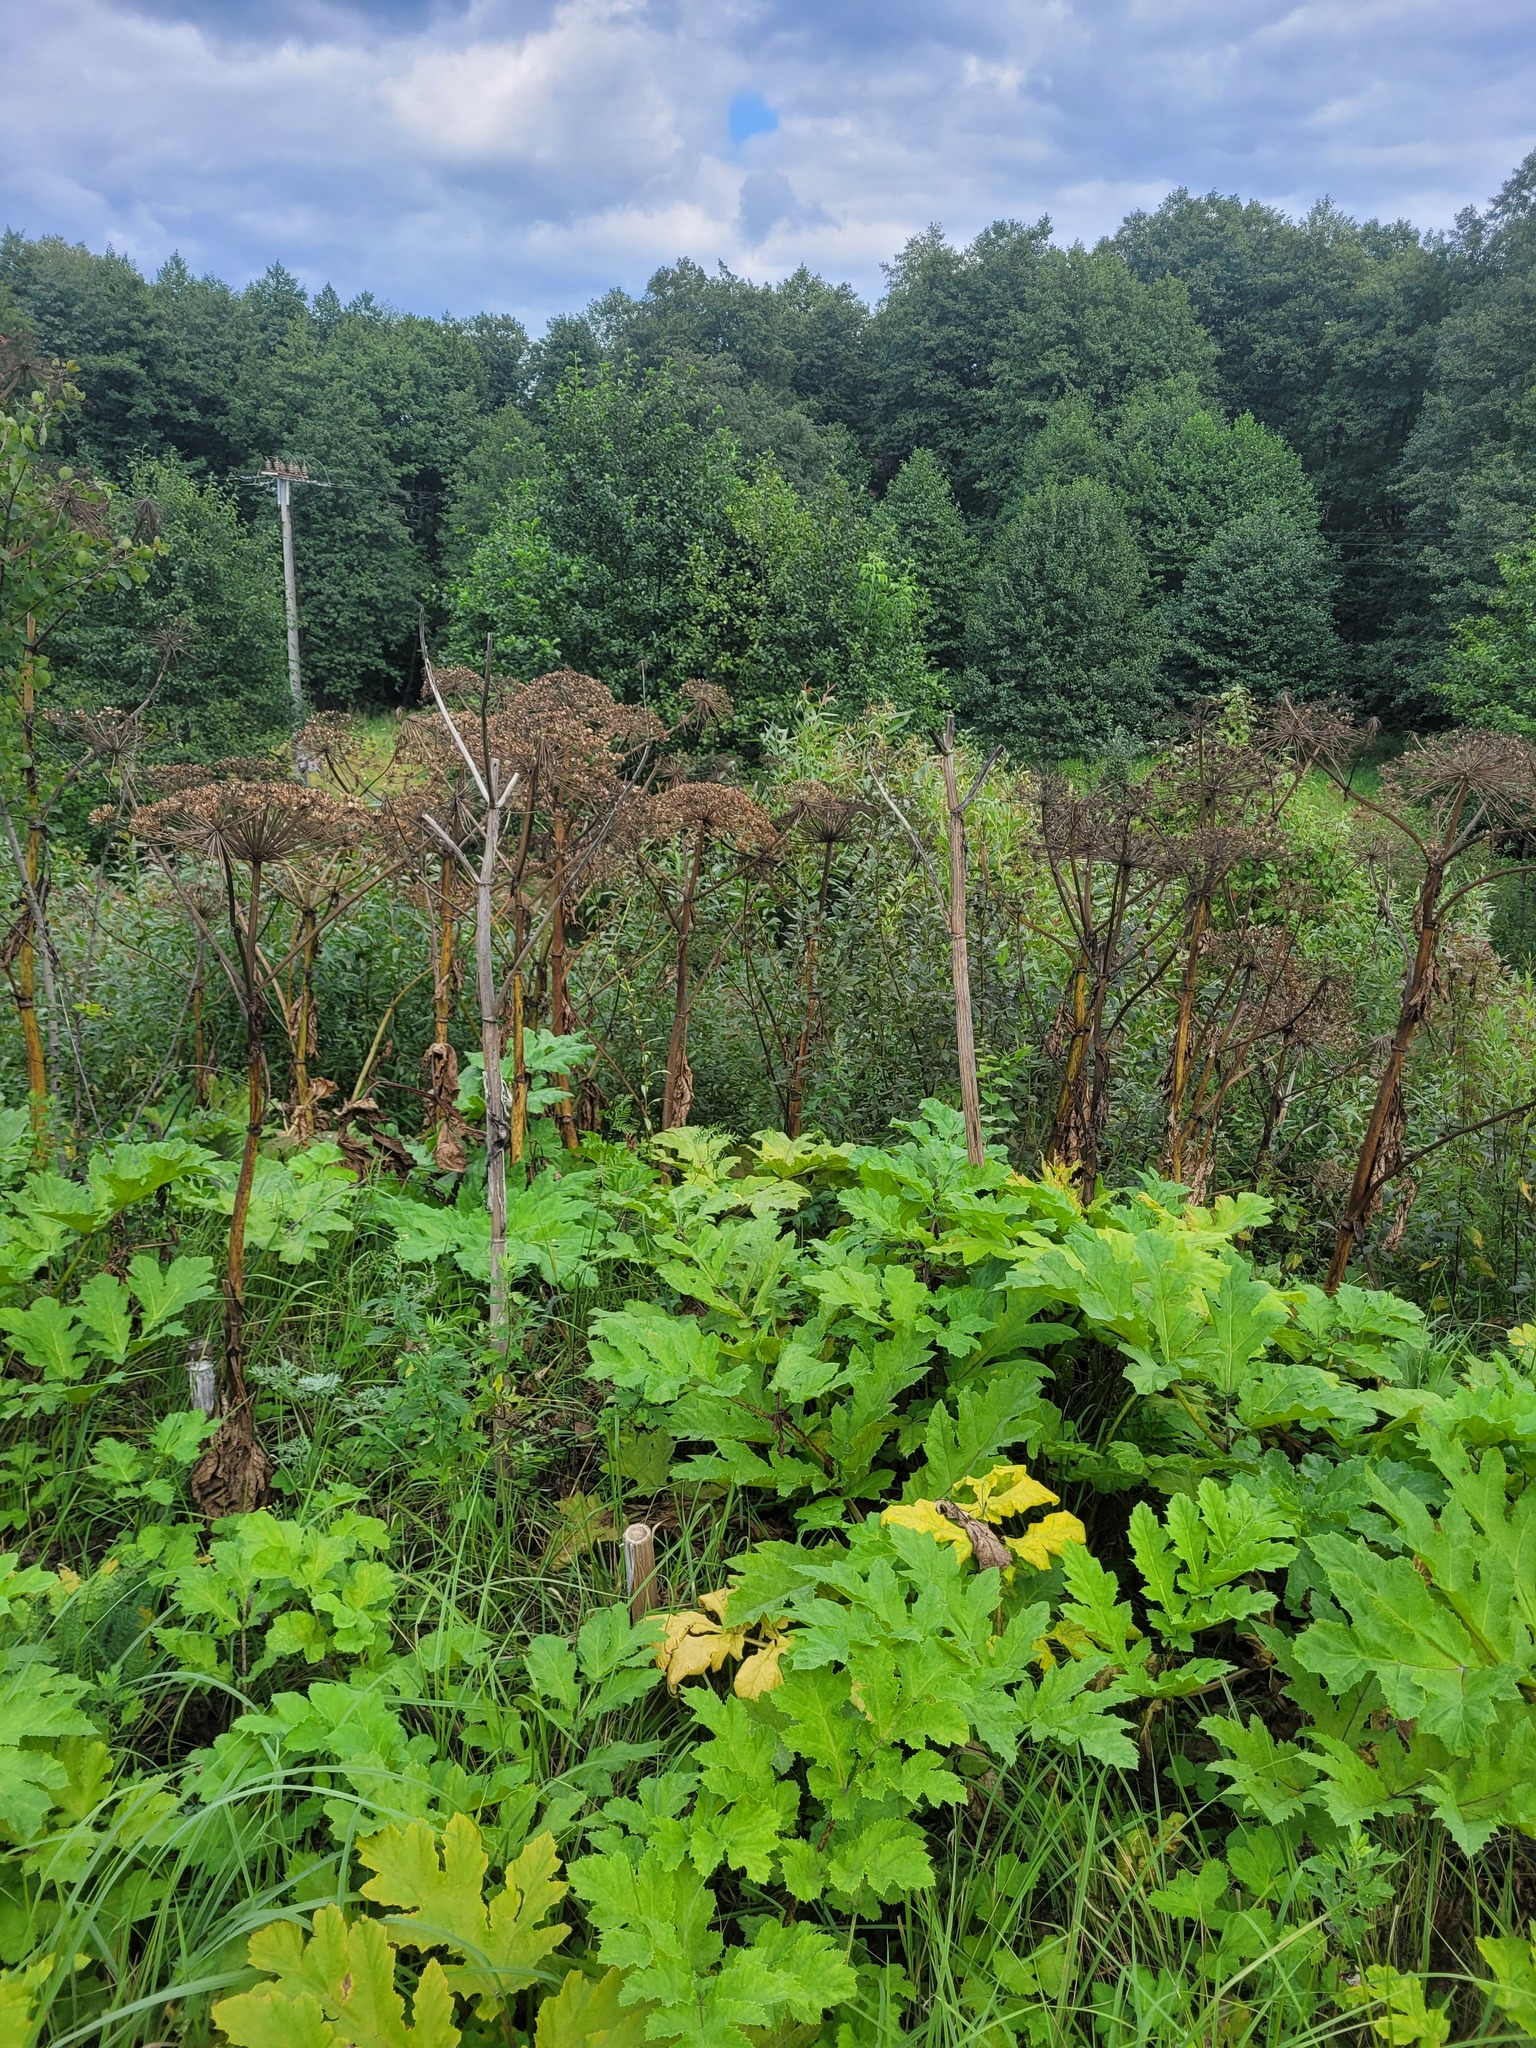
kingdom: Plantae
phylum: Tracheophyta
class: Magnoliopsida
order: Apiales
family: Apiaceae
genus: Heracleum
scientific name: Heracleum sosnowskyi
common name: Sosnowsky's hogweed
